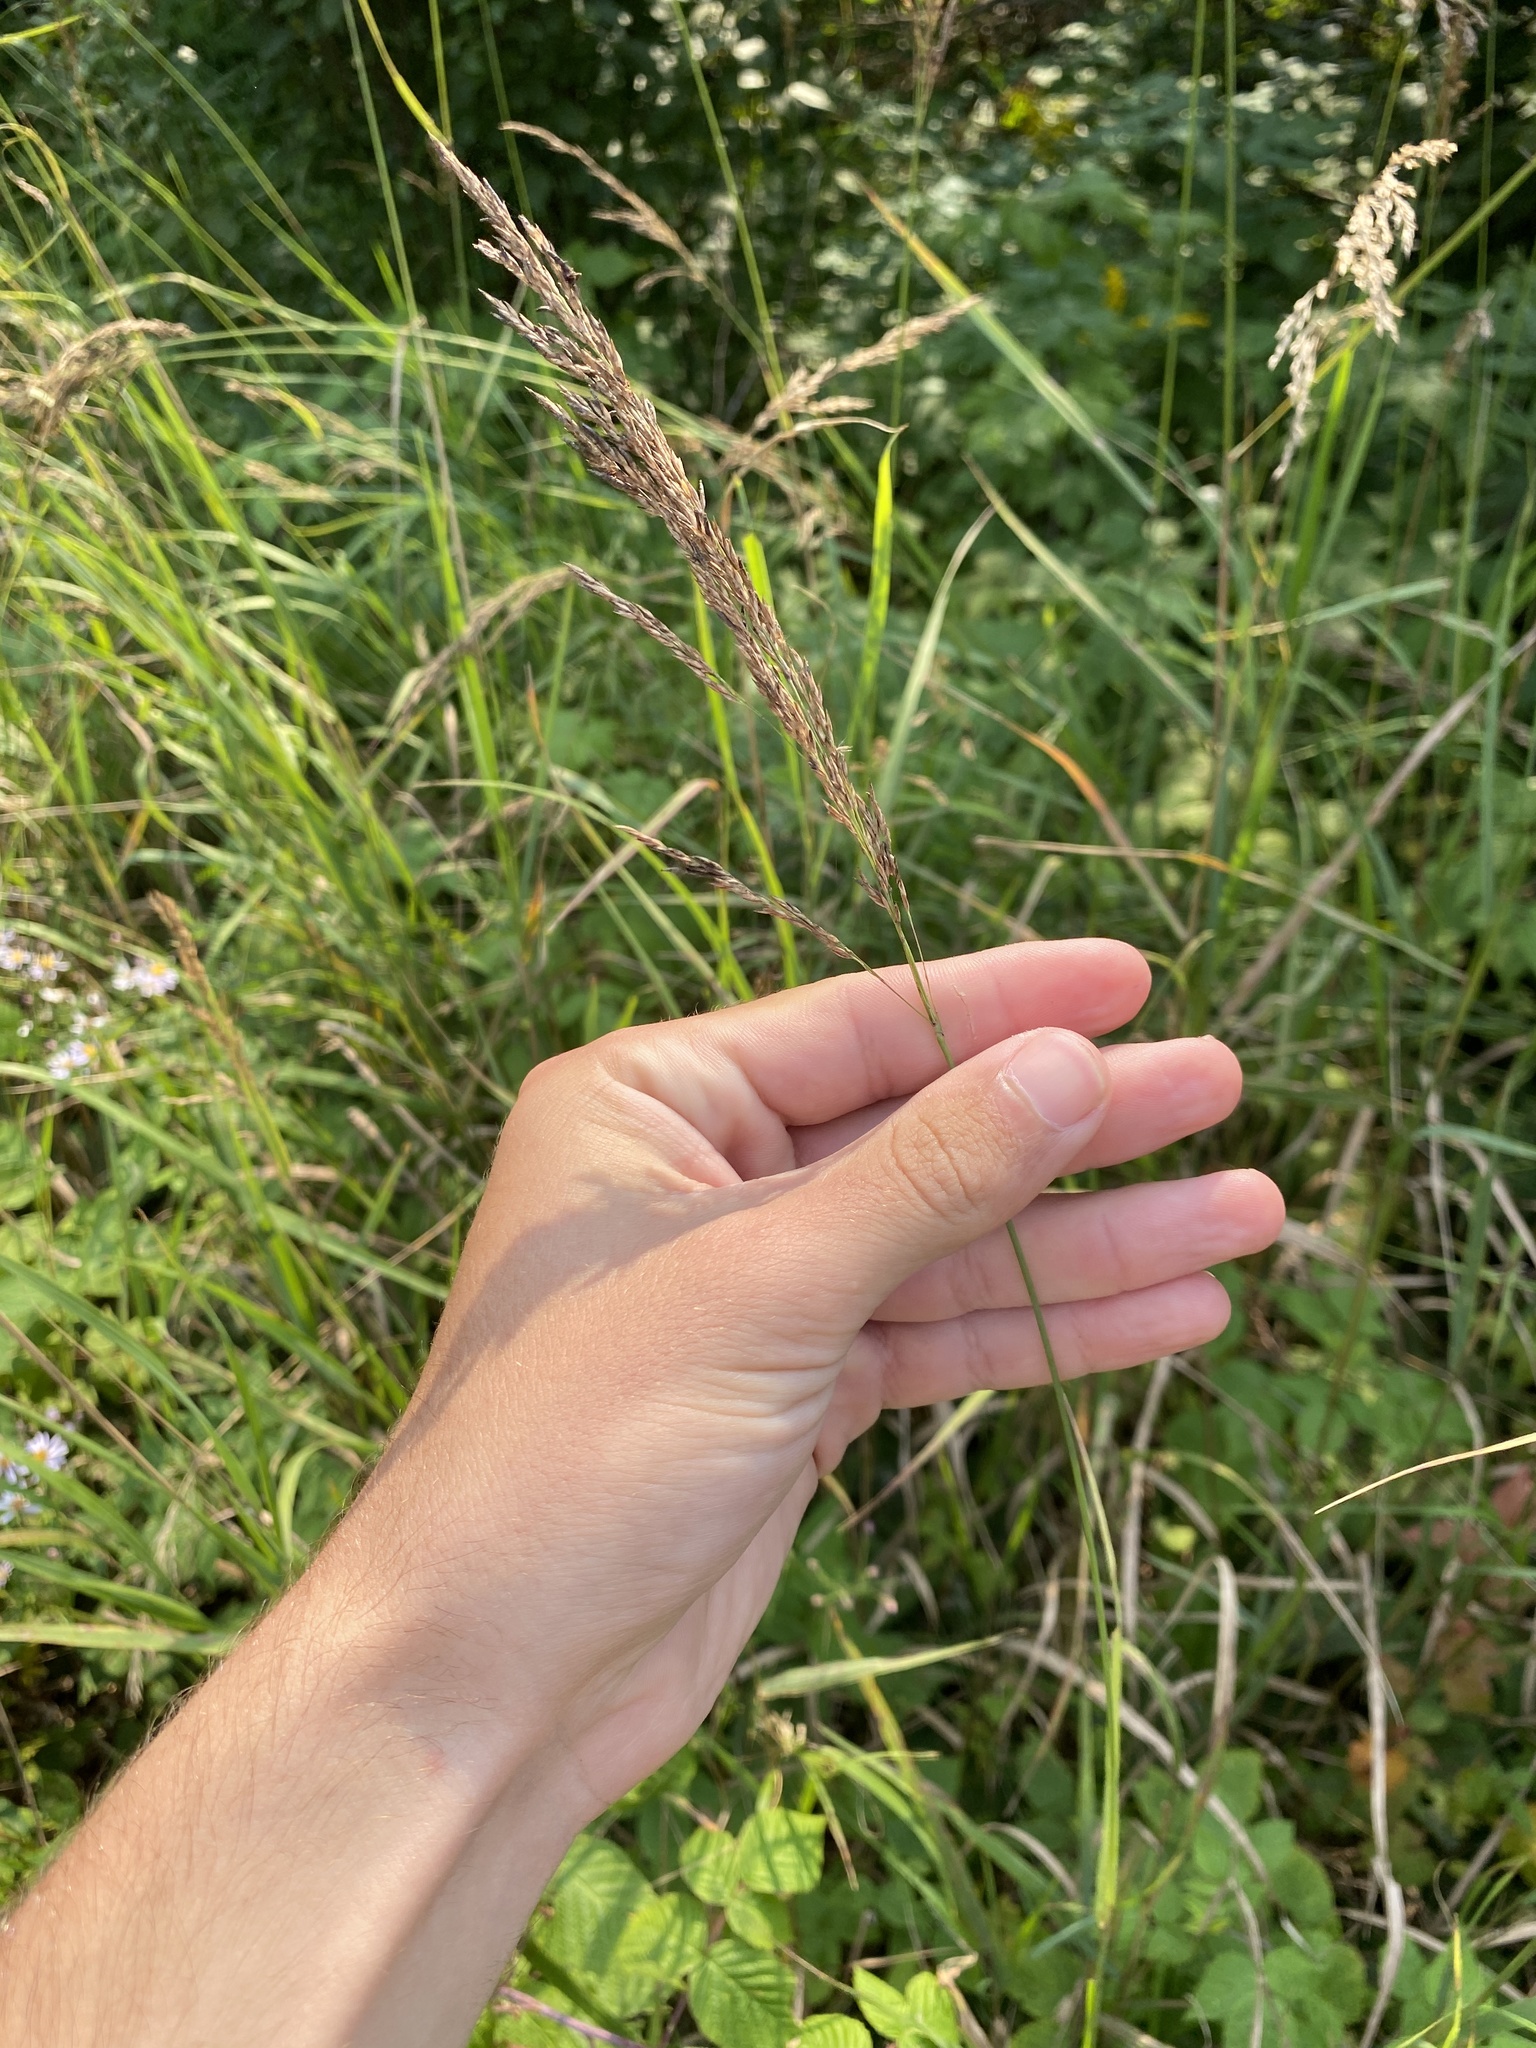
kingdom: Plantae
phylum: Tracheophyta
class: Liliopsida
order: Poales
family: Poaceae
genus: Calamagrostis
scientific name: Calamagrostis canadensis
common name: Canada bluejoint
